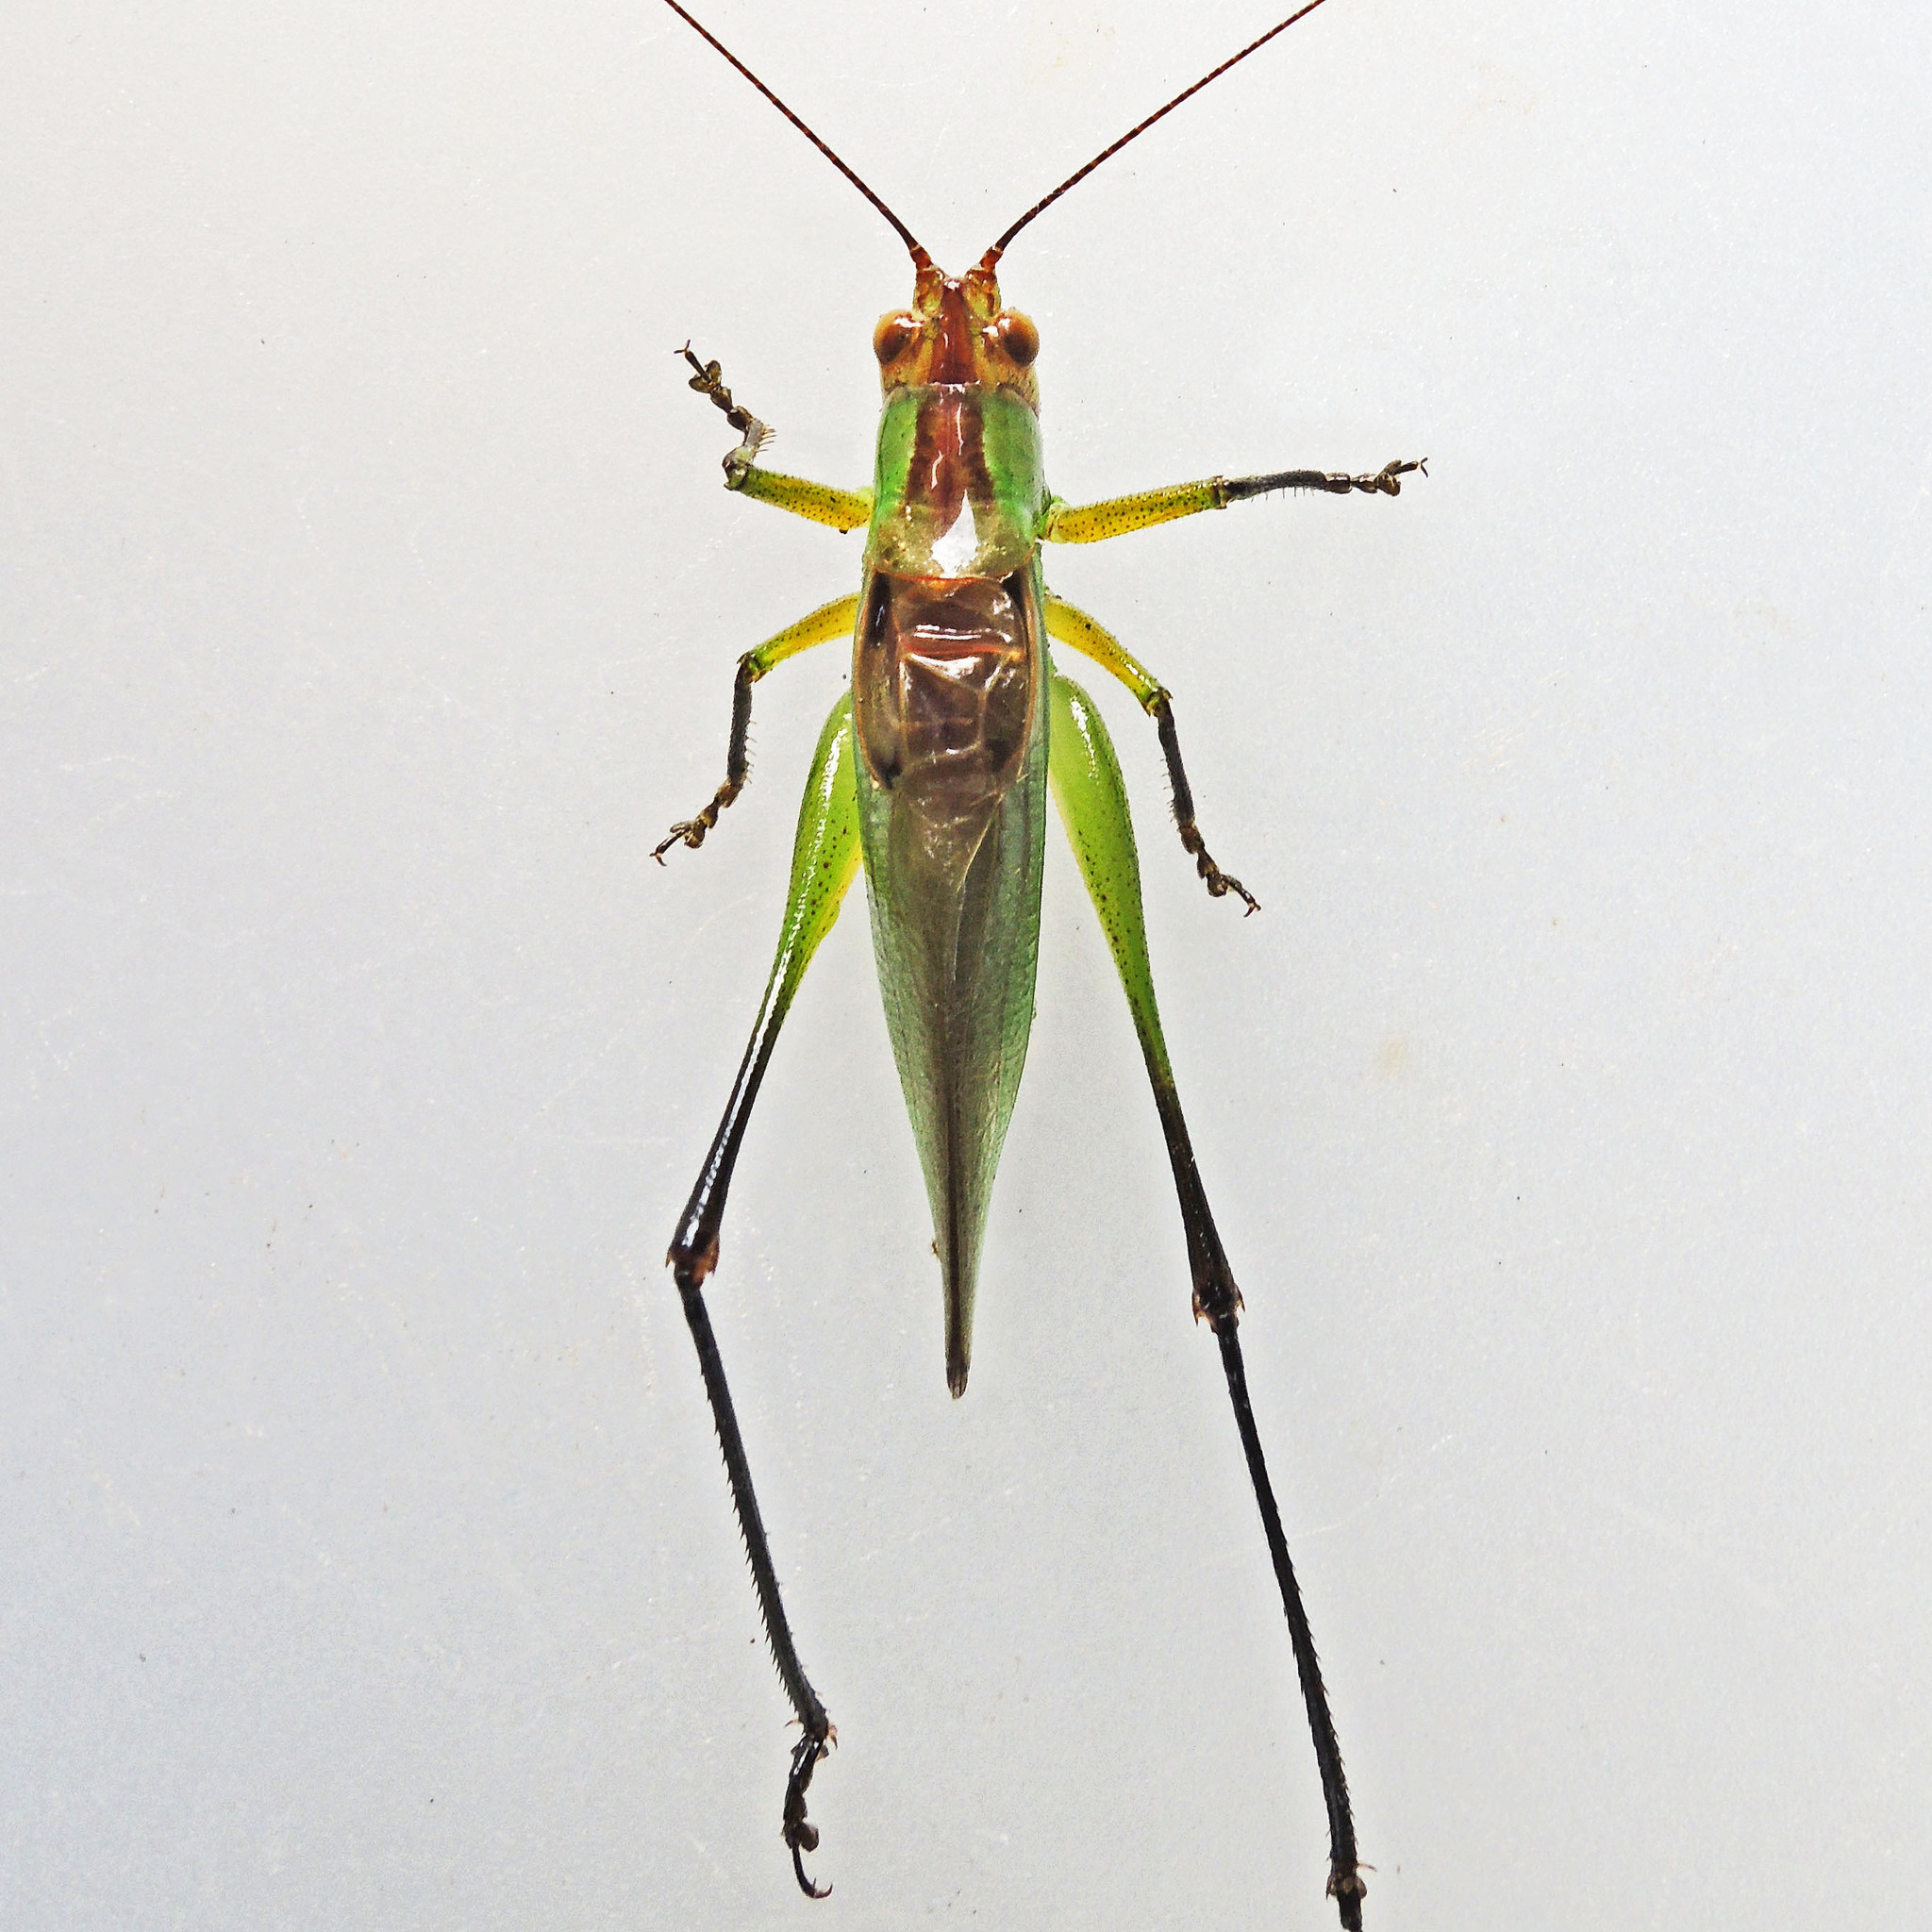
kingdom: Animalia
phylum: Arthropoda
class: Insecta
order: Orthoptera
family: Tettigoniidae
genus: Orchelimum
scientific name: Orchelimum nigripes
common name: Black-legged meadow katydid
